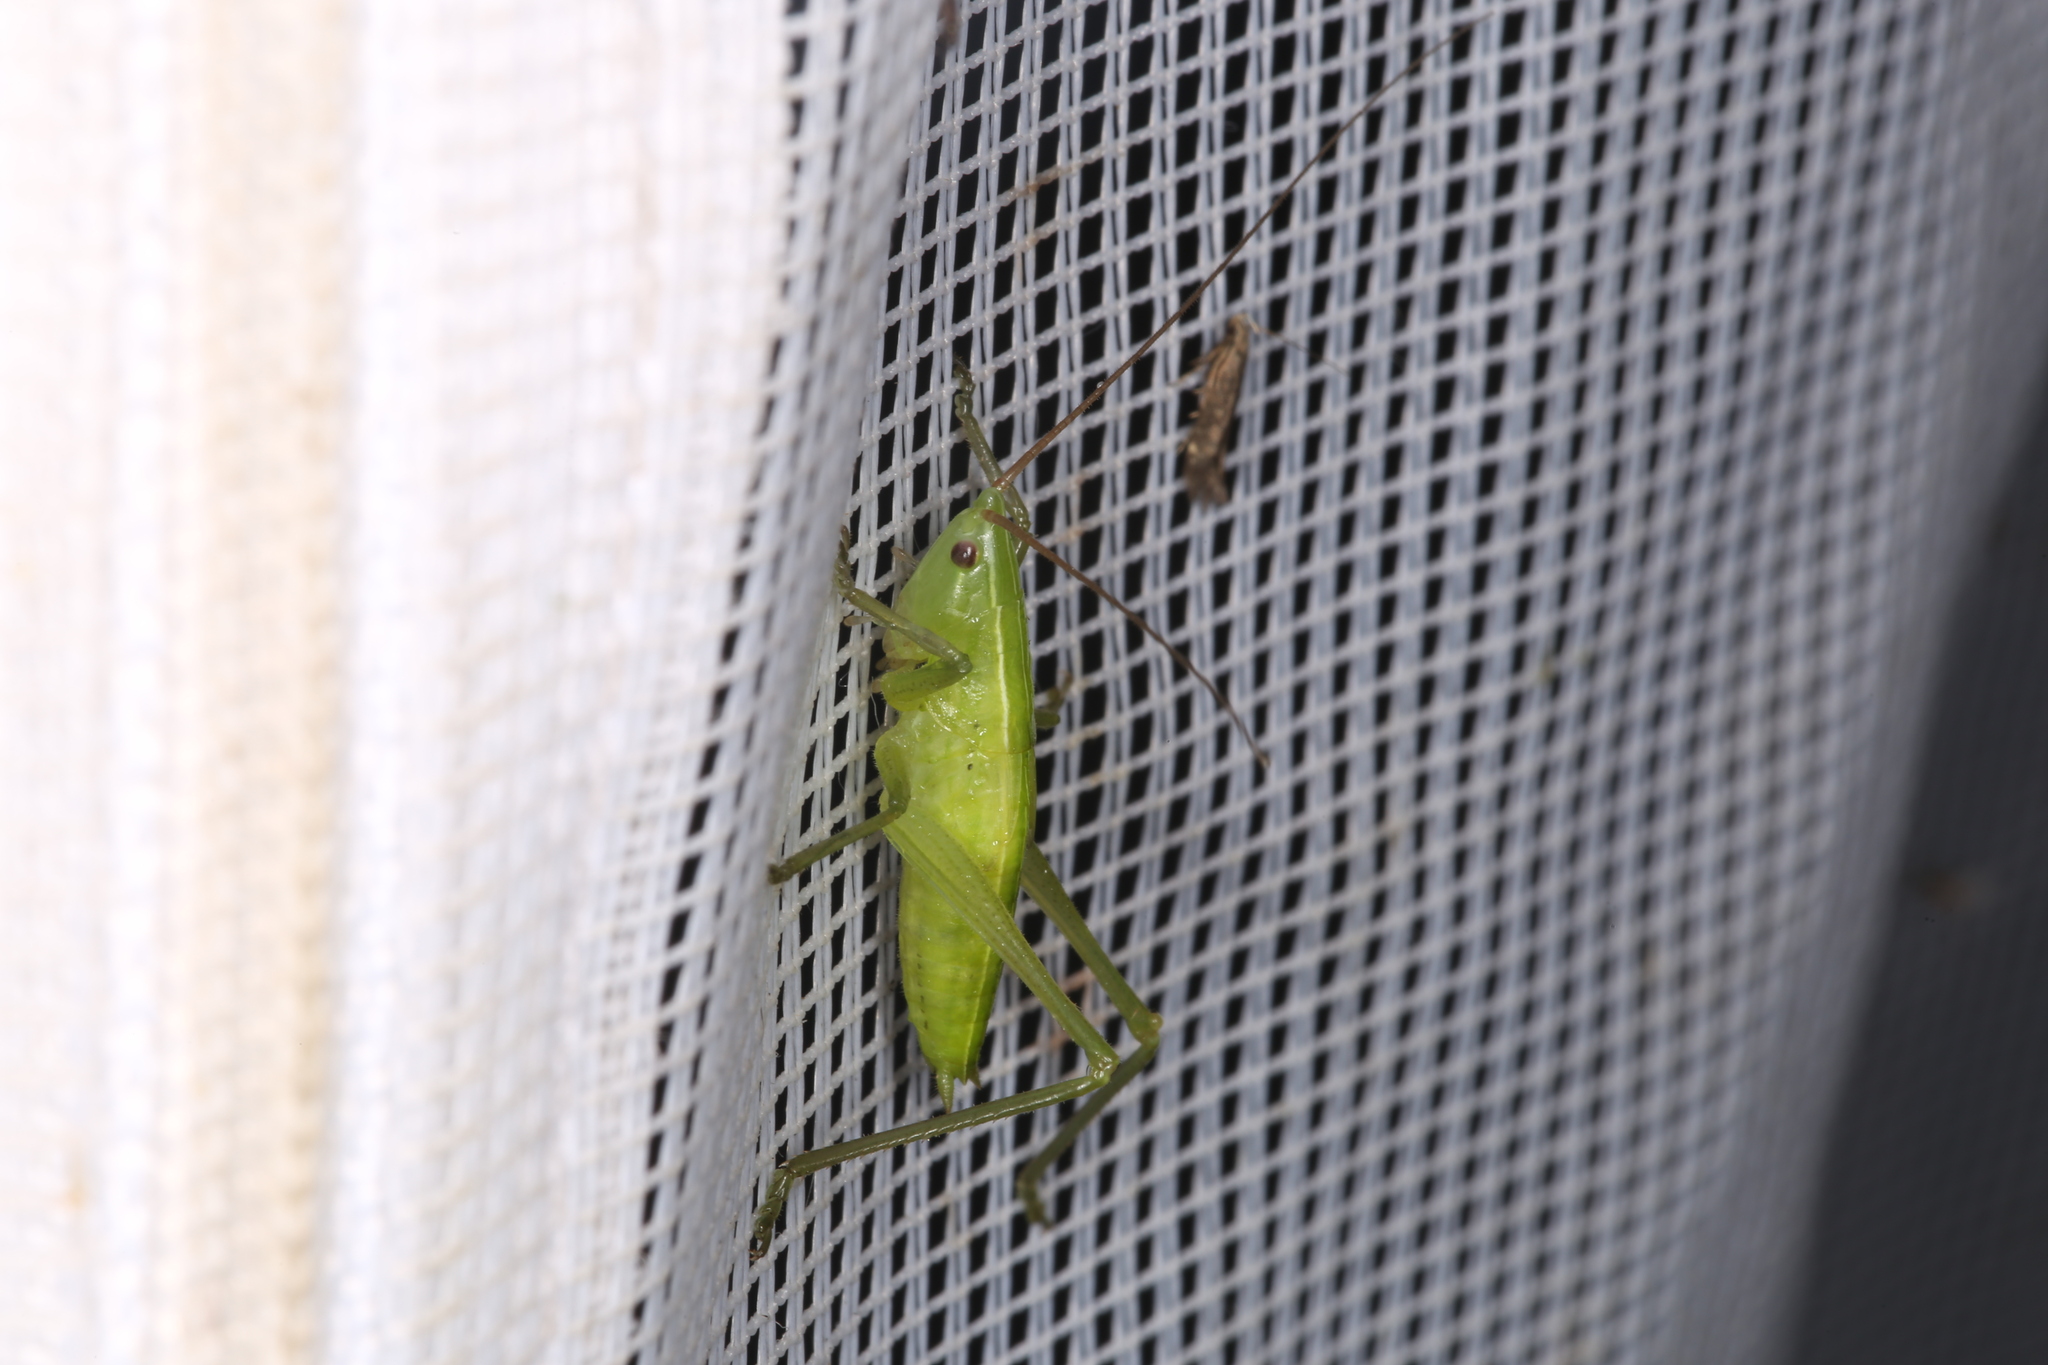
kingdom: Animalia
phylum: Arthropoda
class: Insecta
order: Orthoptera
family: Tettigoniidae
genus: Ruspolia
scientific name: Ruspolia nitidula
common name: Large conehead
